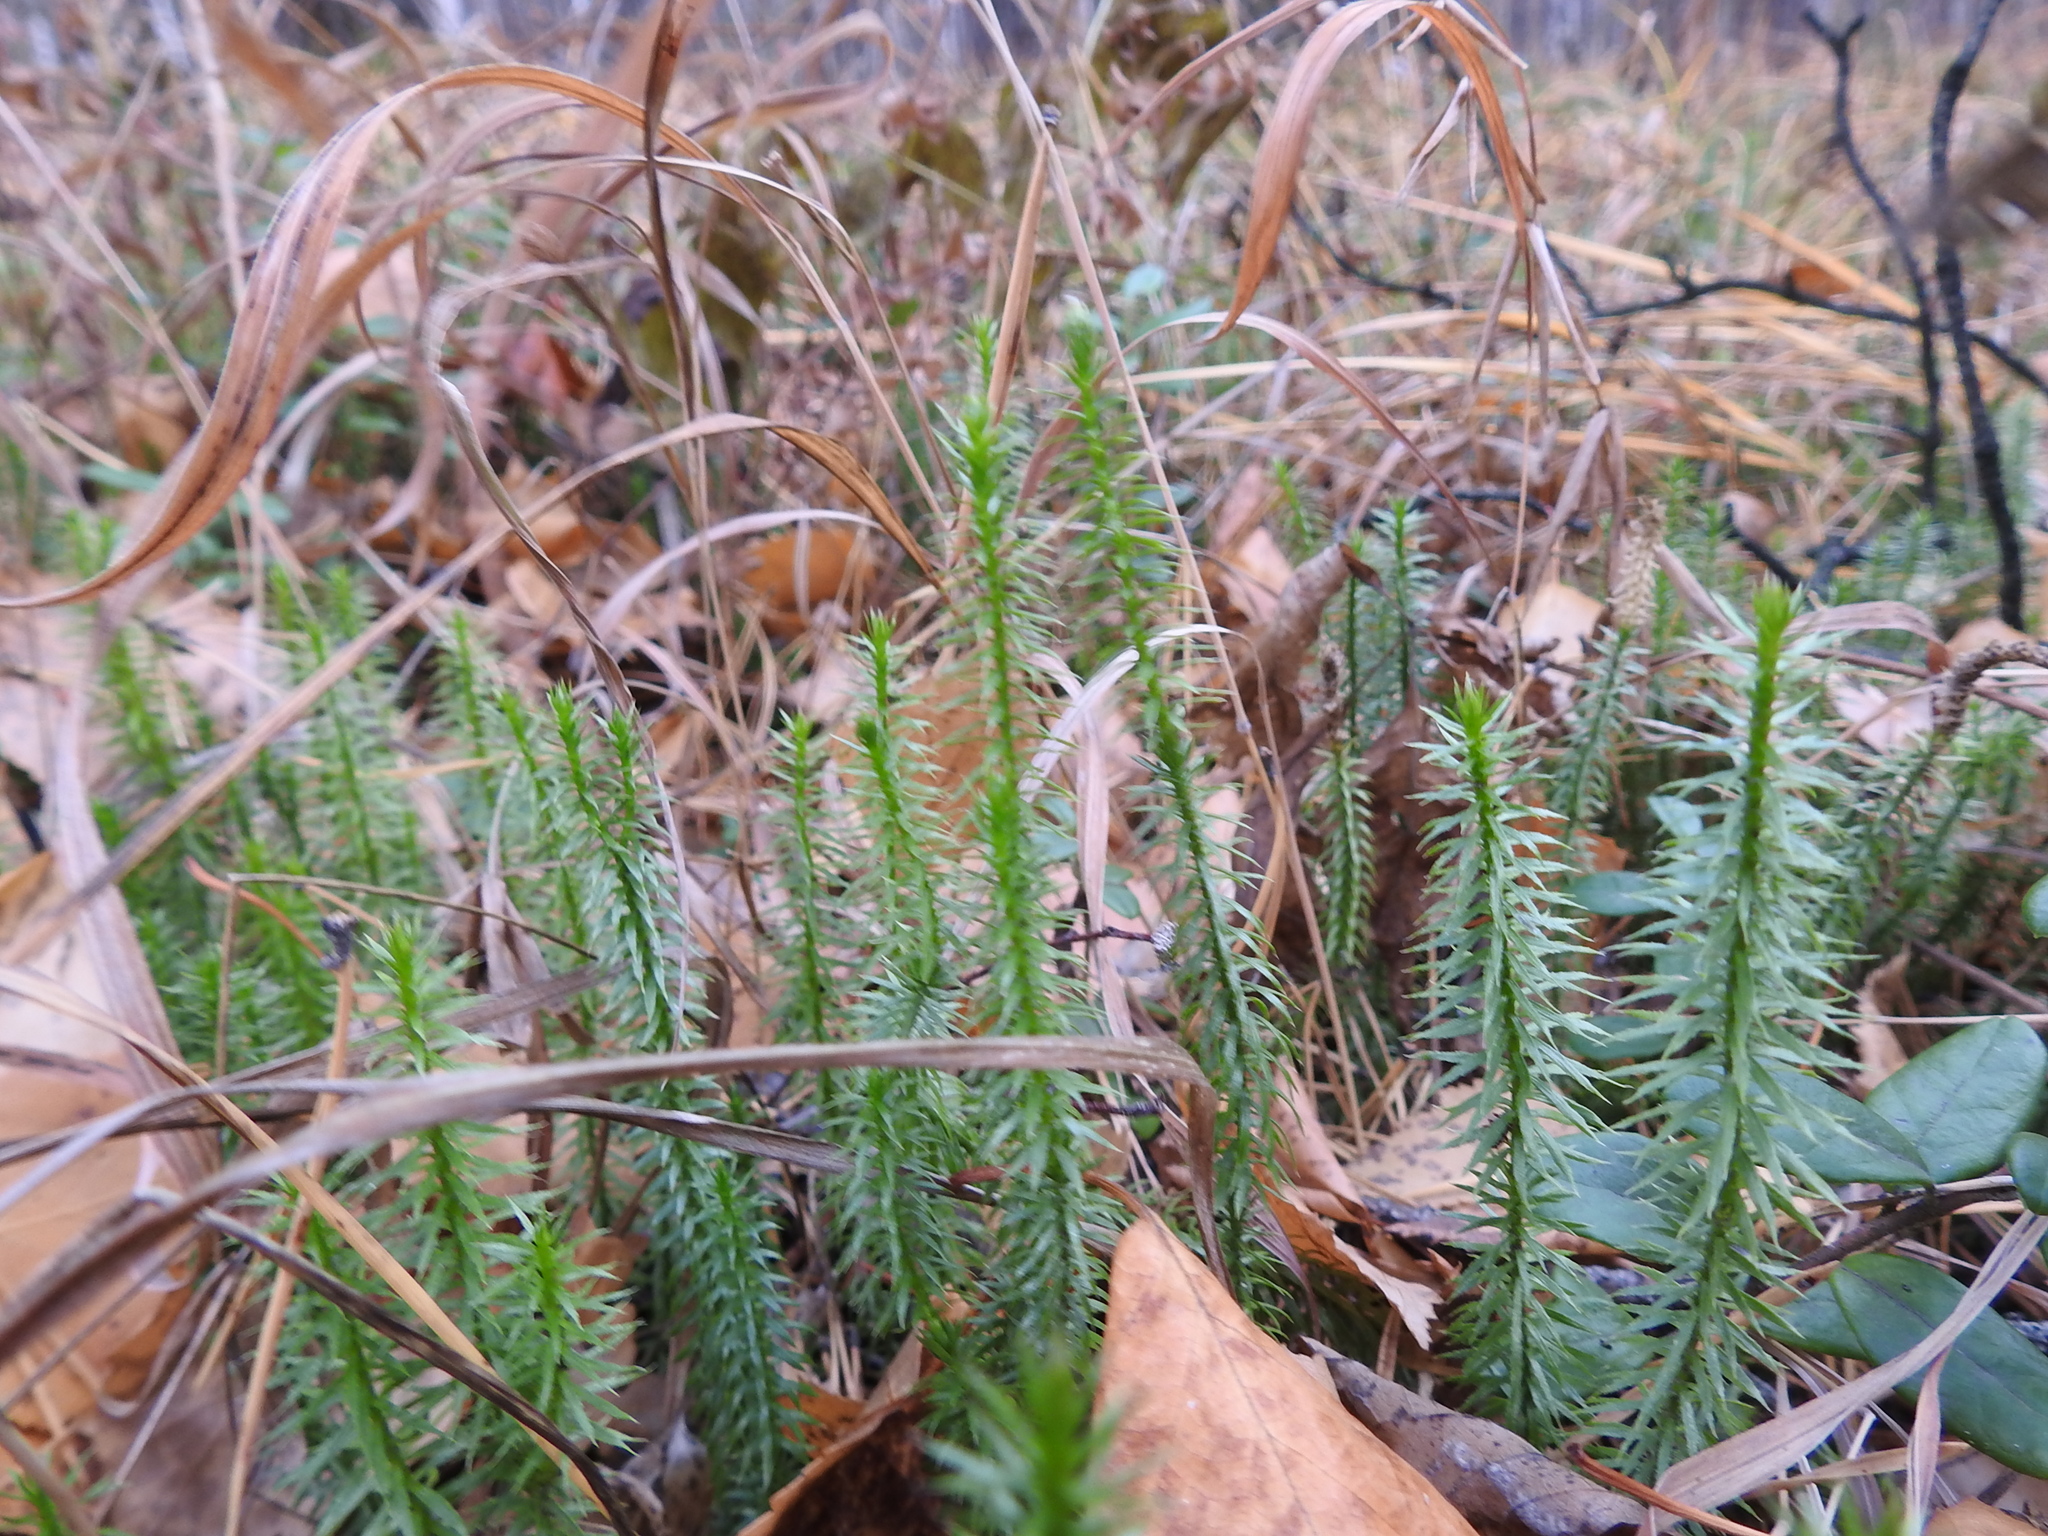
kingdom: Plantae
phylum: Tracheophyta
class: Lycopodiopsida
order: Lycopodiales
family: Lycopodiaceae
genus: Spinulum
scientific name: Spinulum annotinum
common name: Interrupted club-moss
